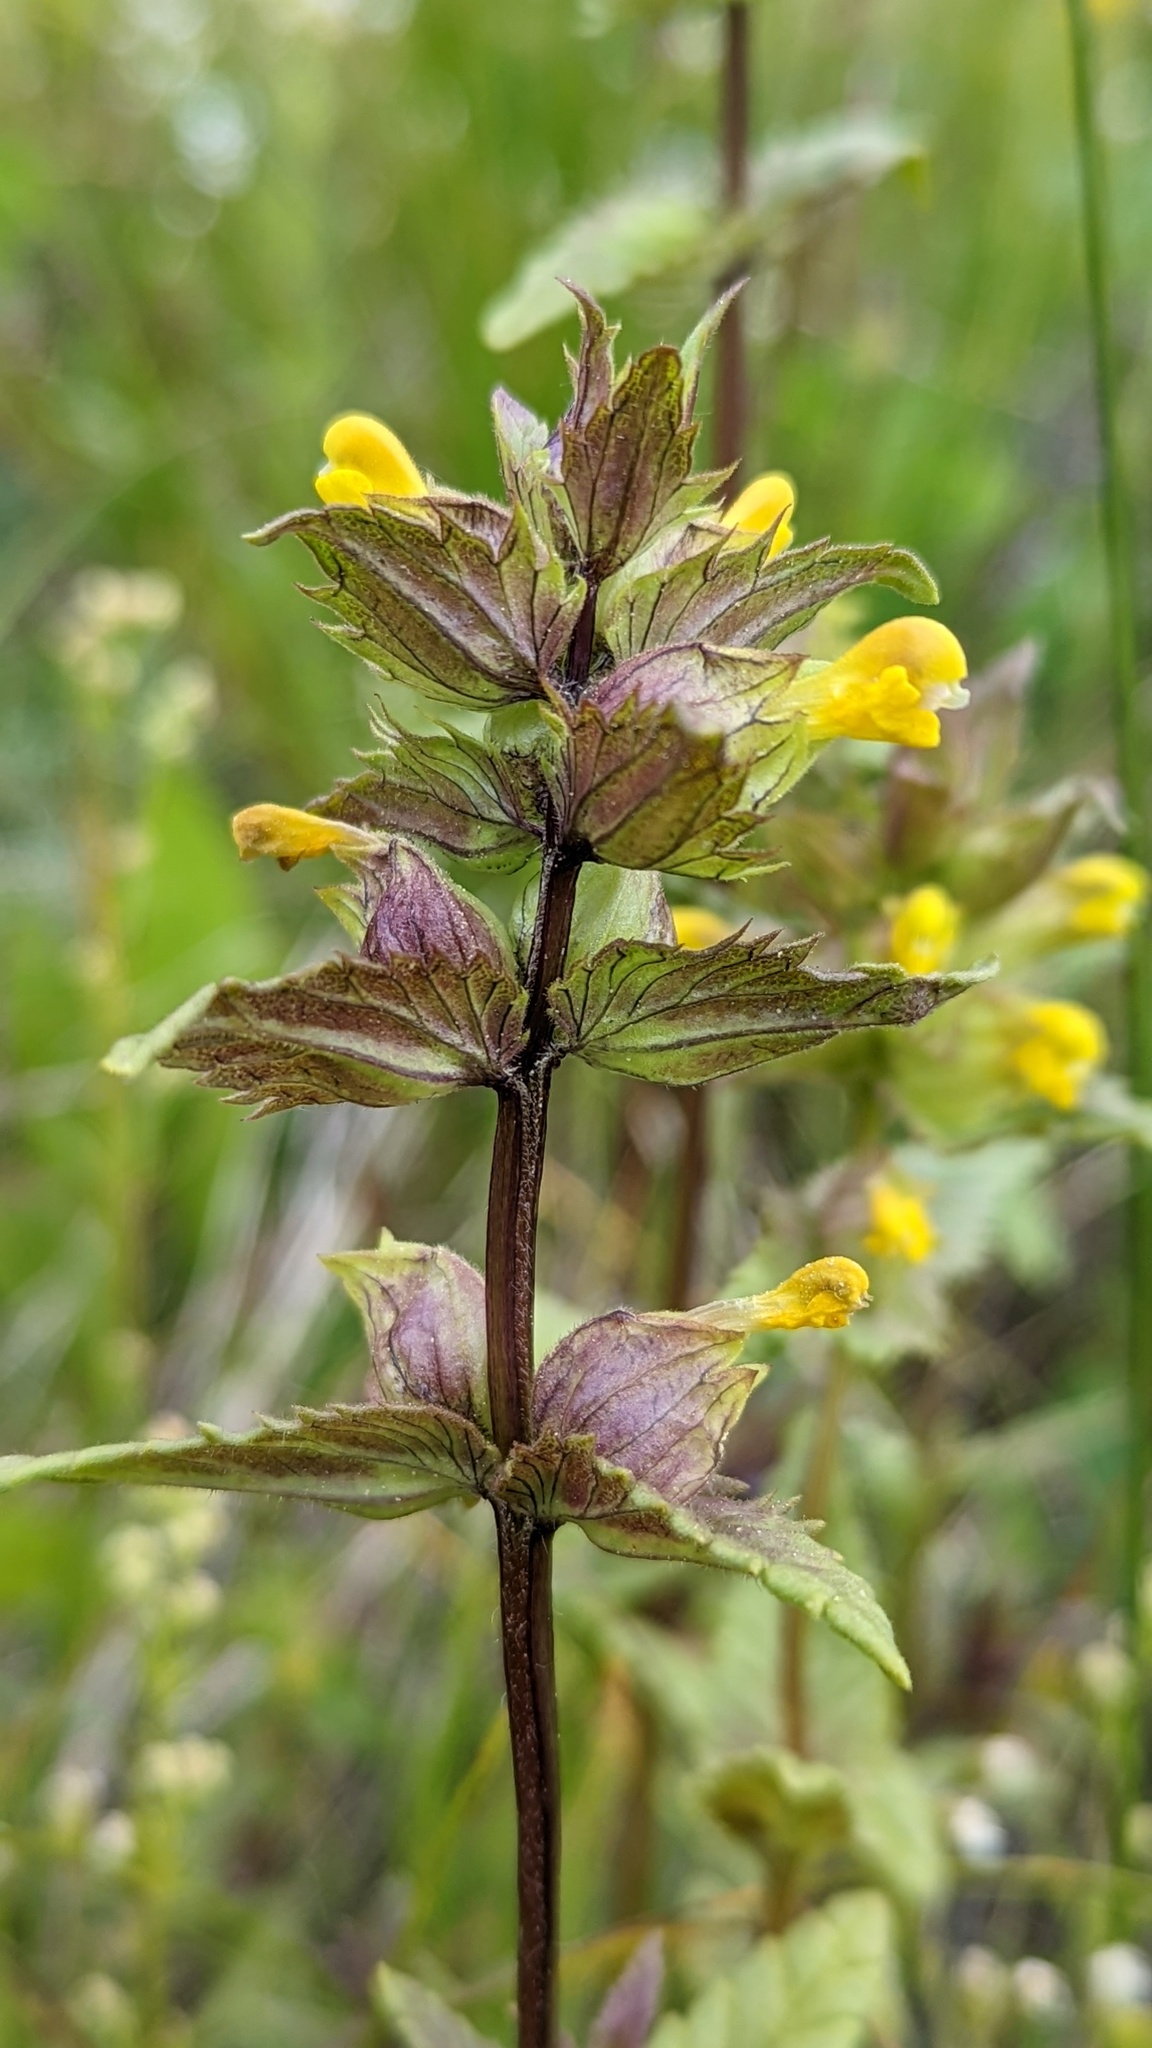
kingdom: Plantae
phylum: Tracheophyta
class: Magnoliopsida
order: Lamiales
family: Orobanchaceae
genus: Rhinanthus
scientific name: Rhinanthus groenlandicus
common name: Little yellow rattle
